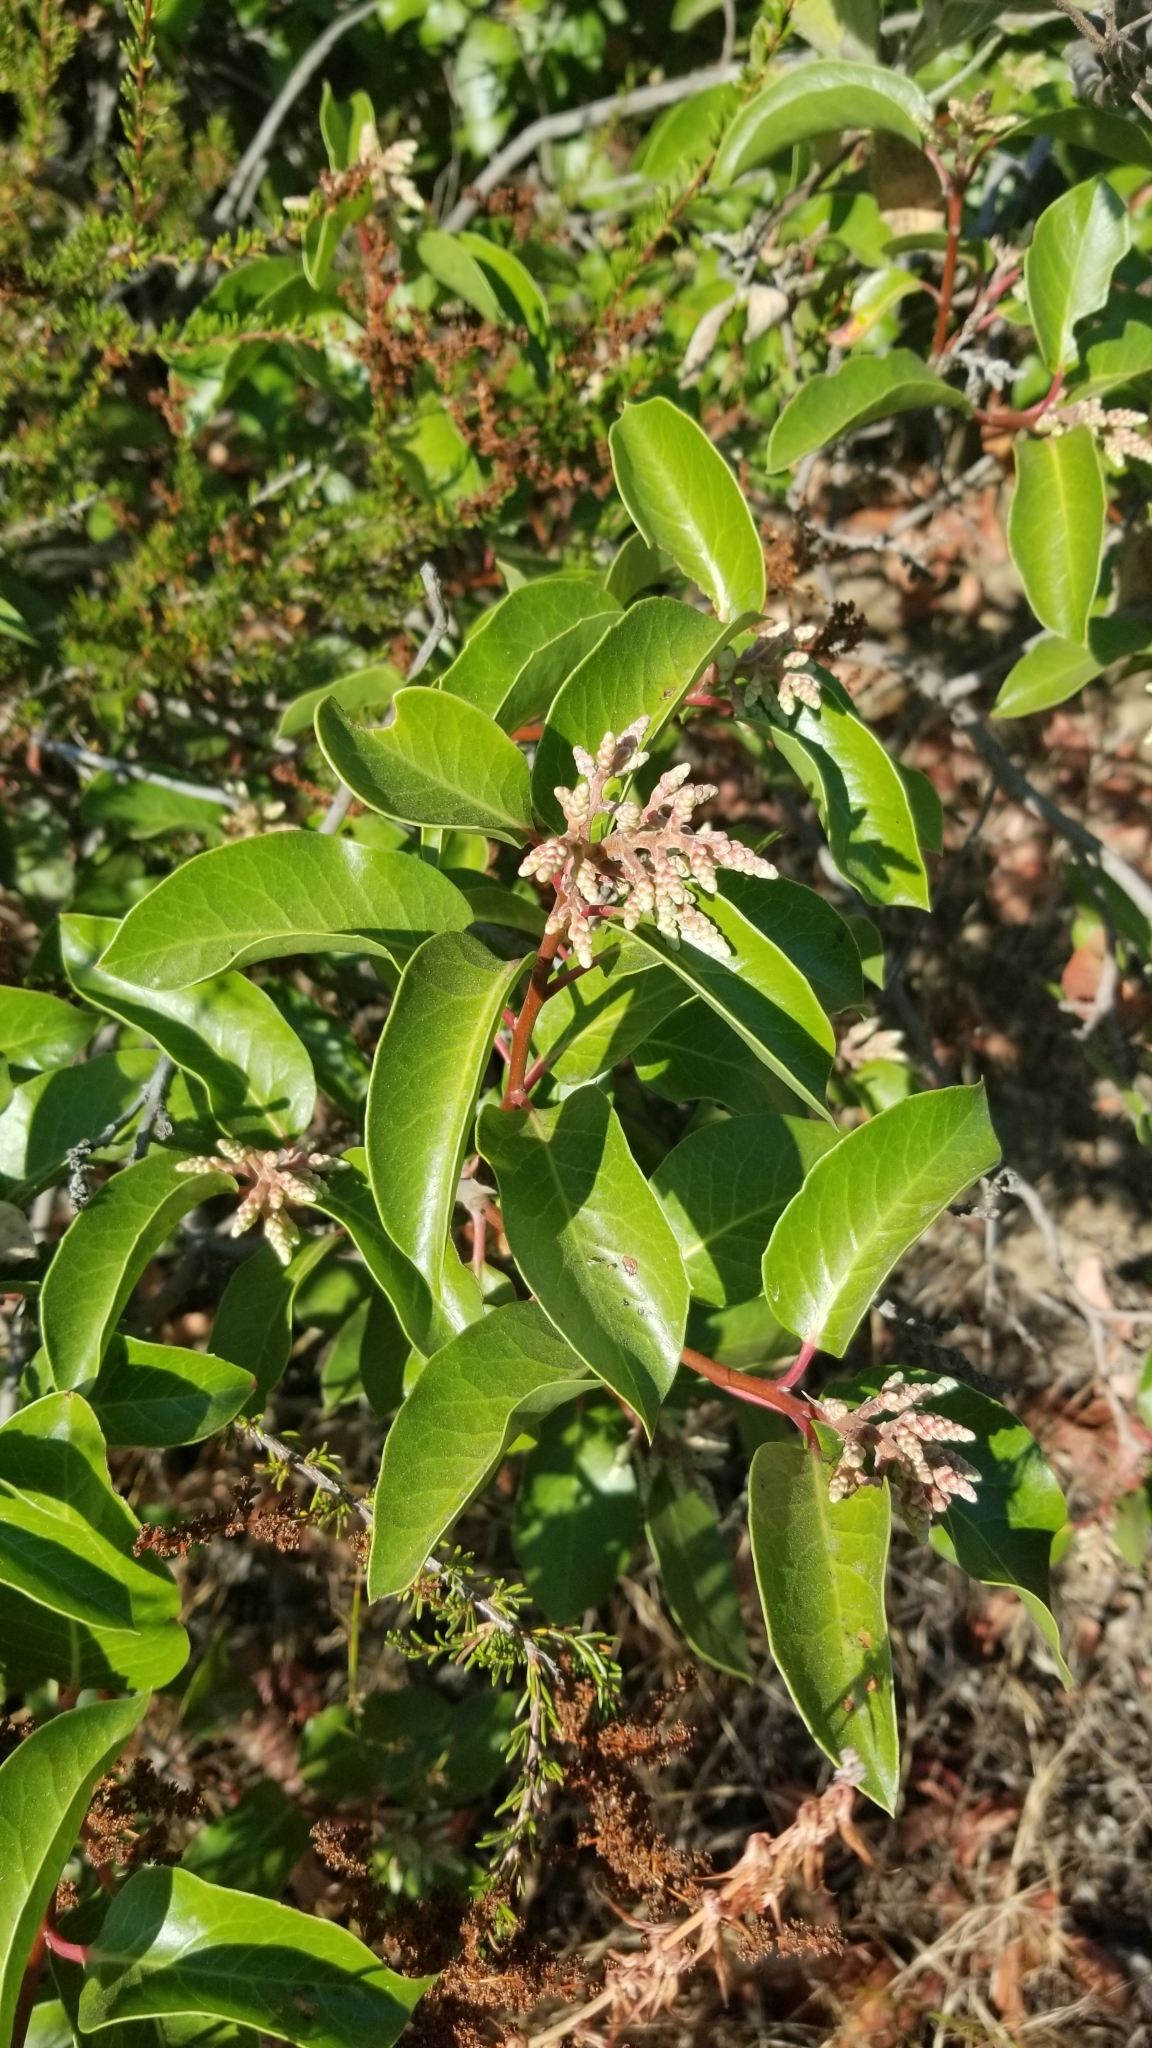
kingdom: Plantae
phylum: Tracheophyta
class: Magnoliopsida
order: Sapindales
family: Anacardiaceae
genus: Rhus
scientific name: Rhus ovata
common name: Sugar sumac
